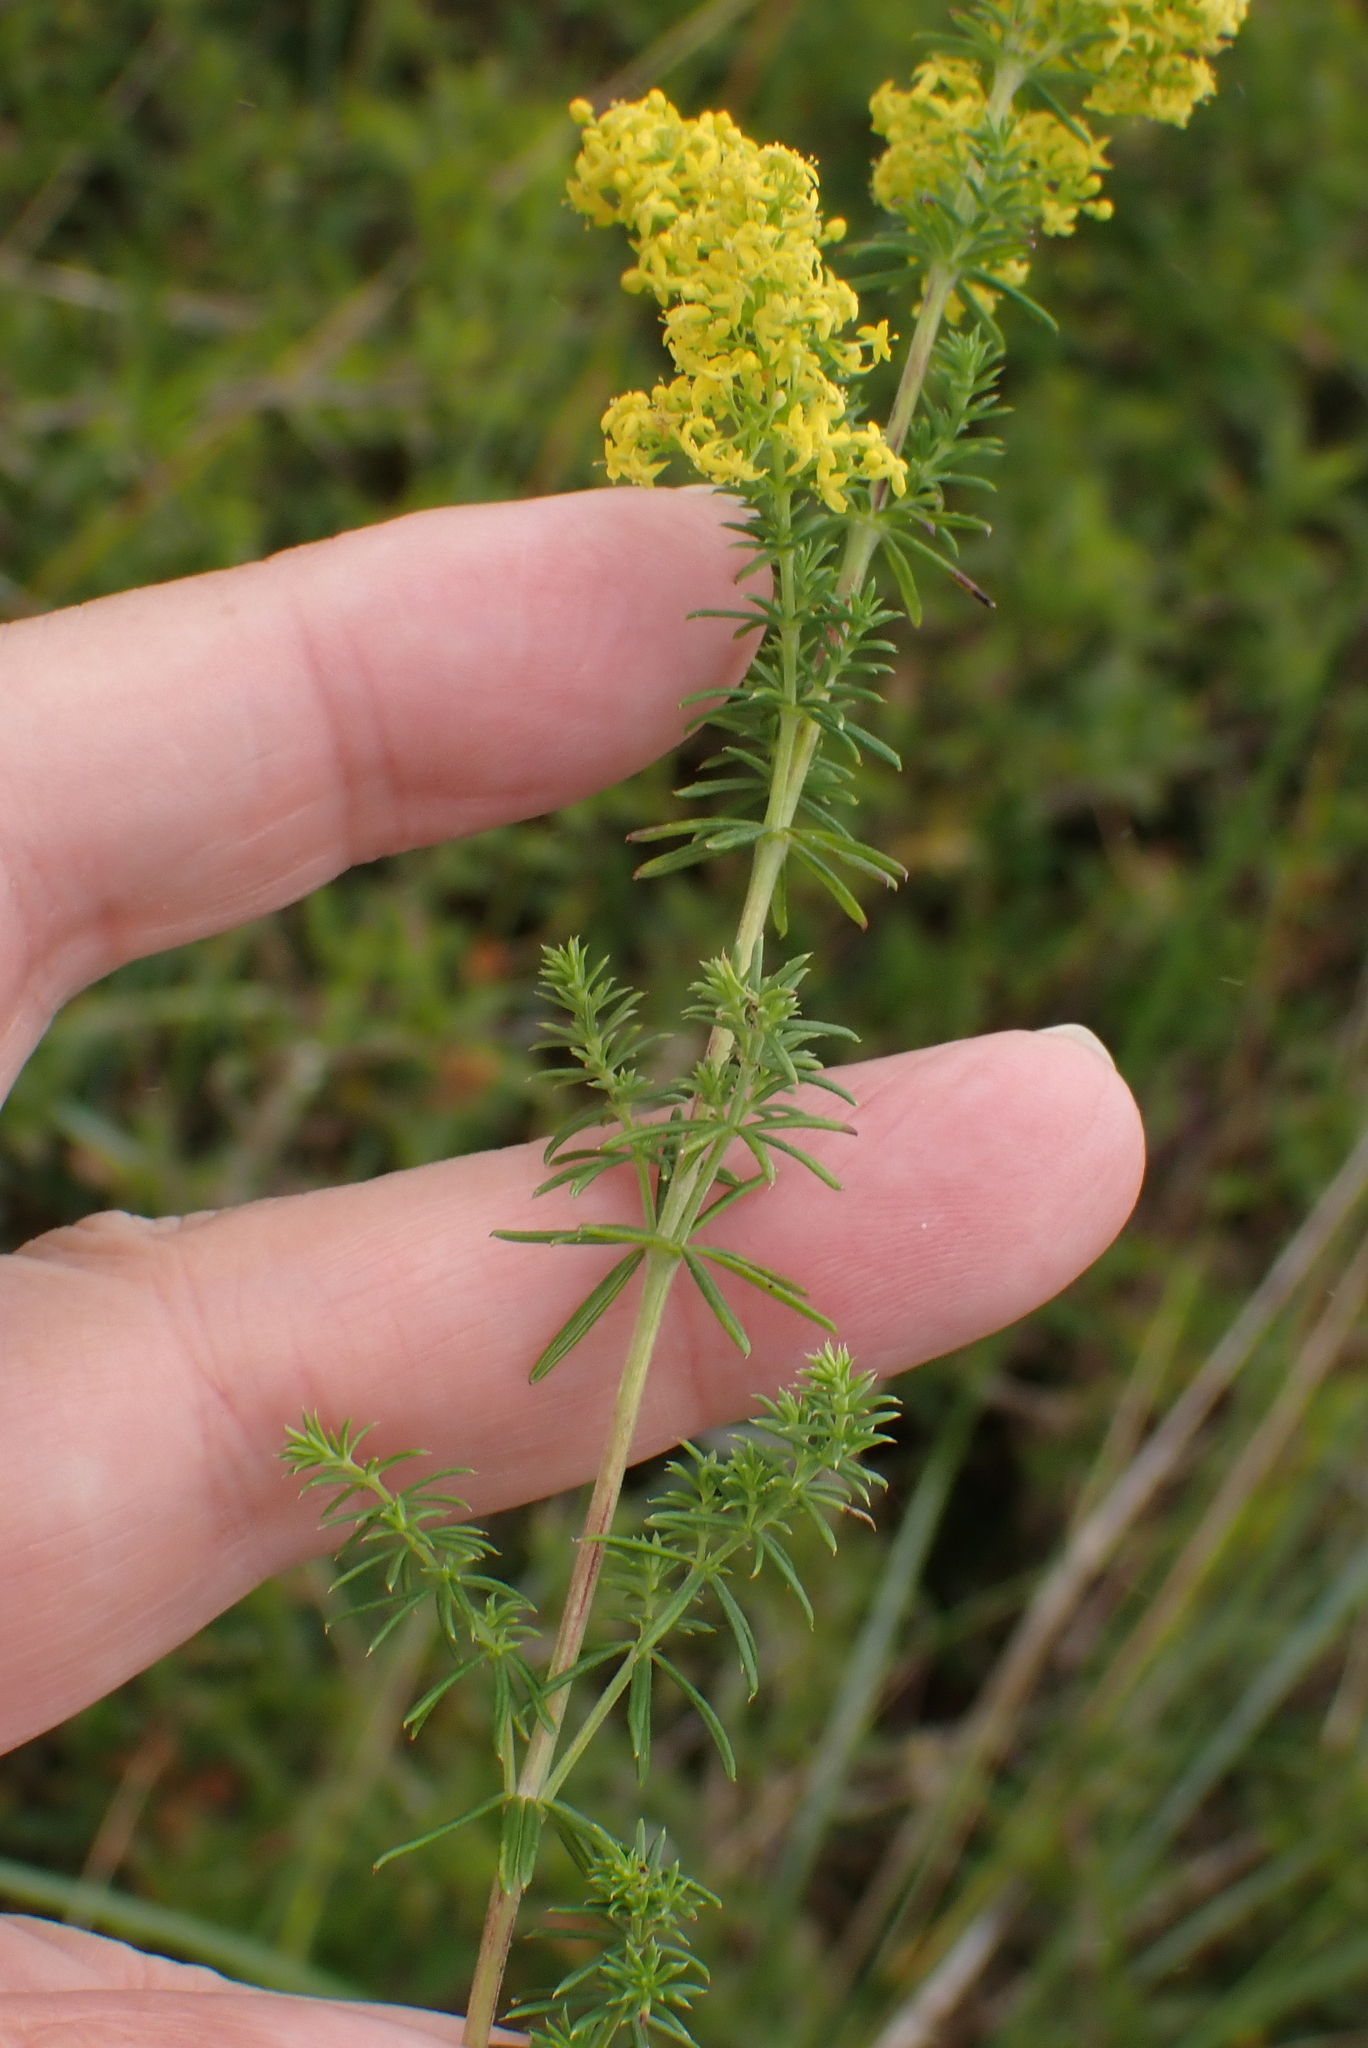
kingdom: Plantae
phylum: Tracheophyta
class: Magnoliopsida
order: Gentianales
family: Rubiaceae
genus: Galium
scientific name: Galium verum
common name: Lady's bedstraw
